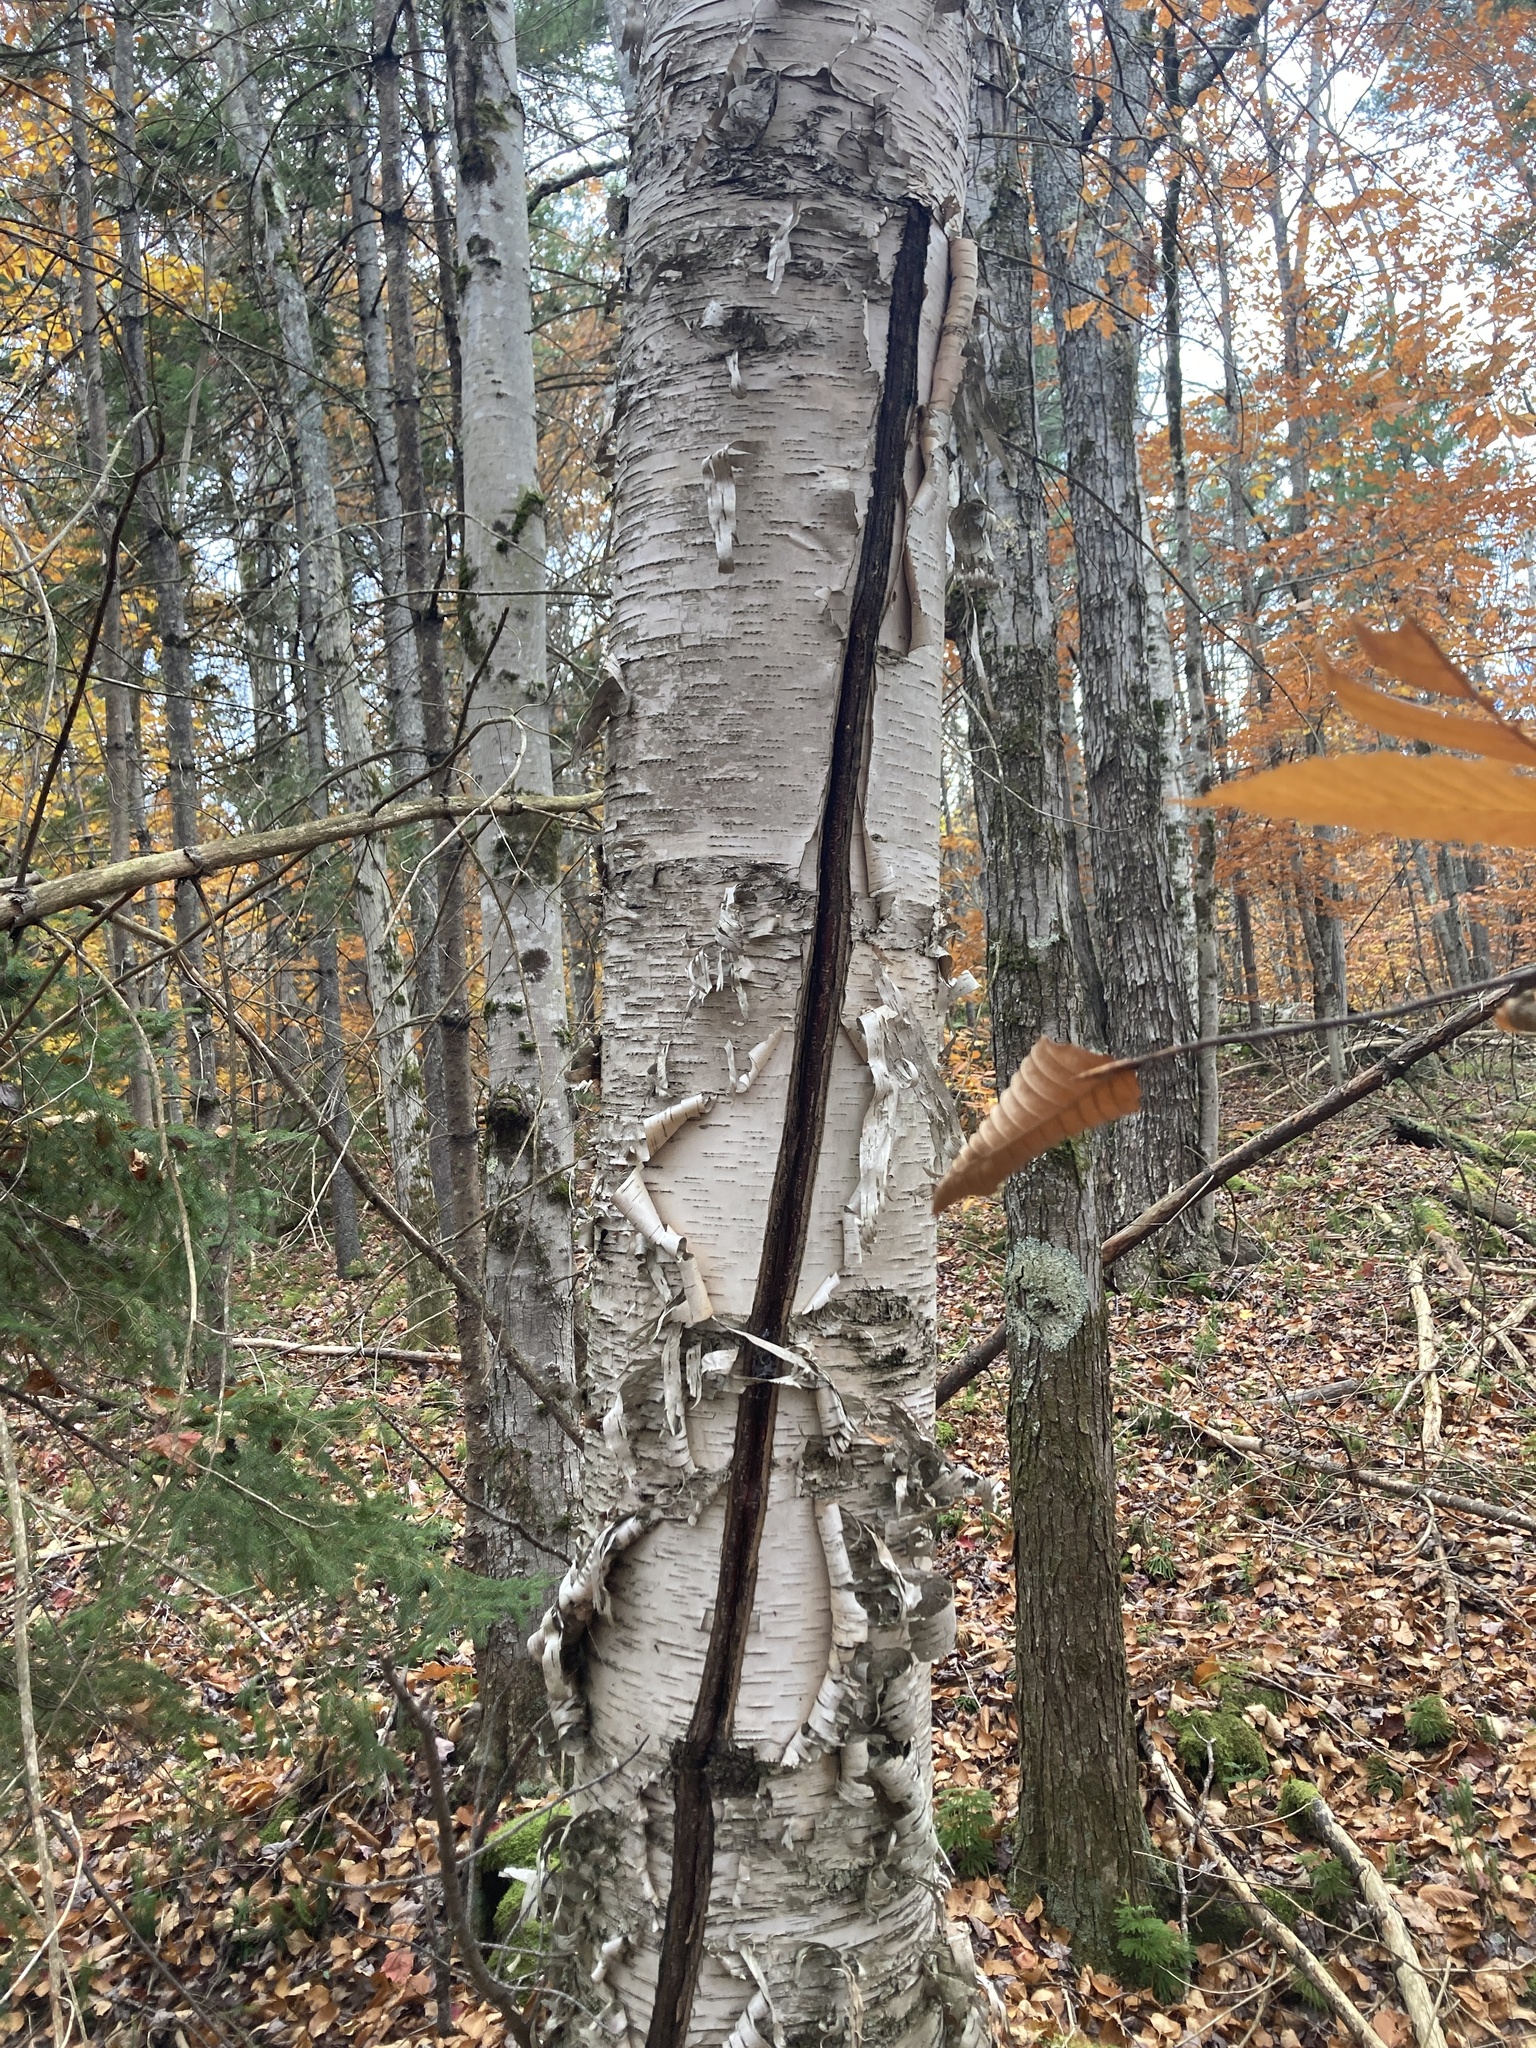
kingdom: Plantae
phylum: Tracheophyta
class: Magnoliopsida
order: Fagales
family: Betulaceae
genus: Betula
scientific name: Betula papyrifera
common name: Paper birch
